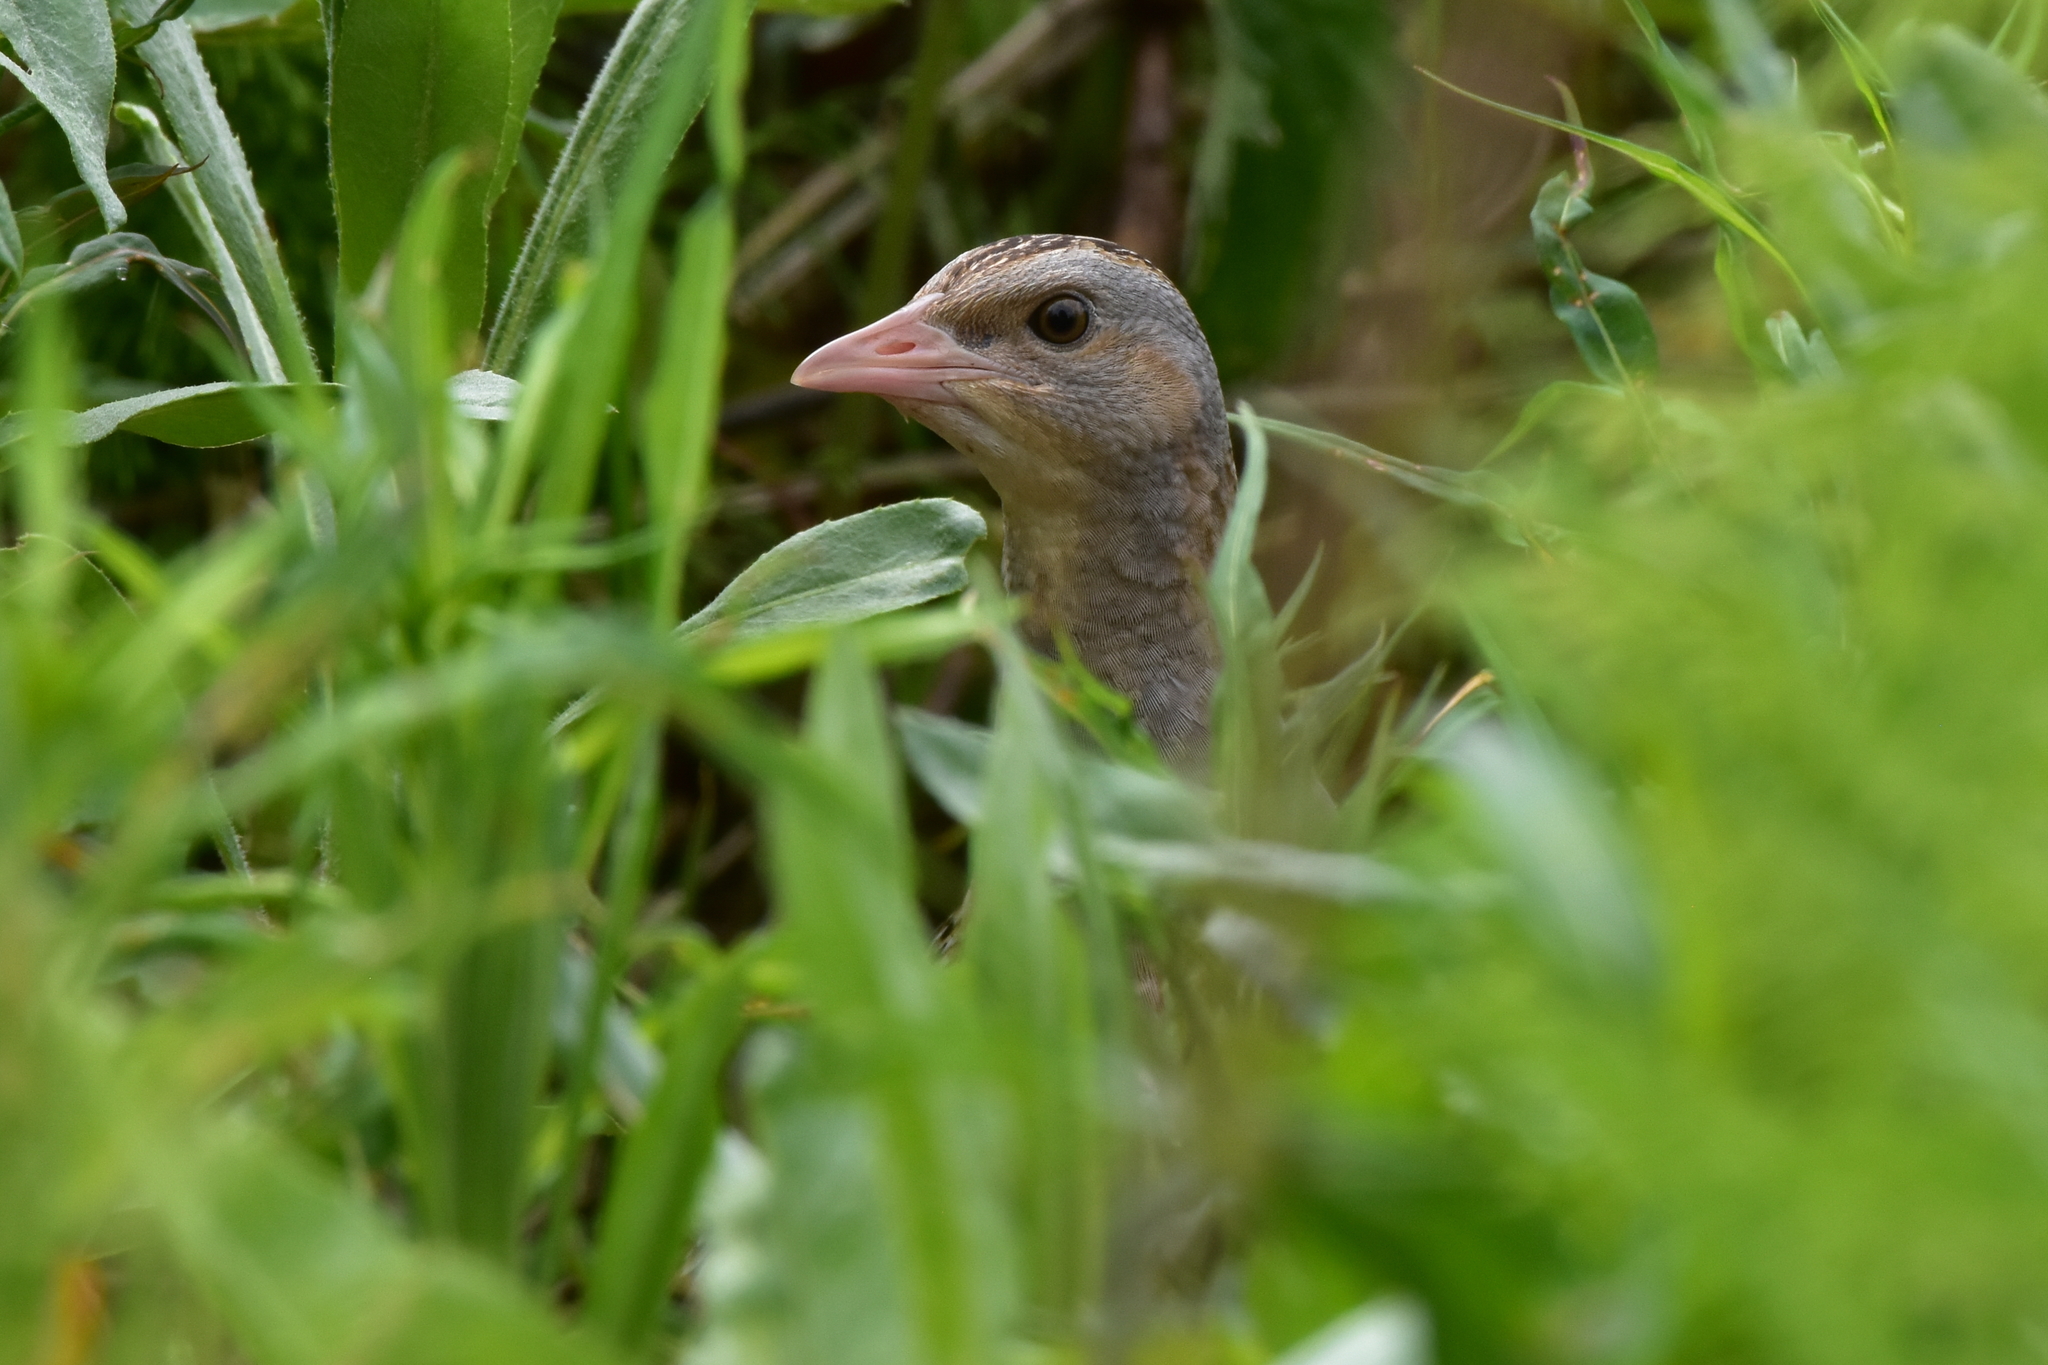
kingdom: Animalia
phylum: Chordata
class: Aves
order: Gruiformes
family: Rallidae
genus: Crex
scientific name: Crex crex
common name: Corn crake
